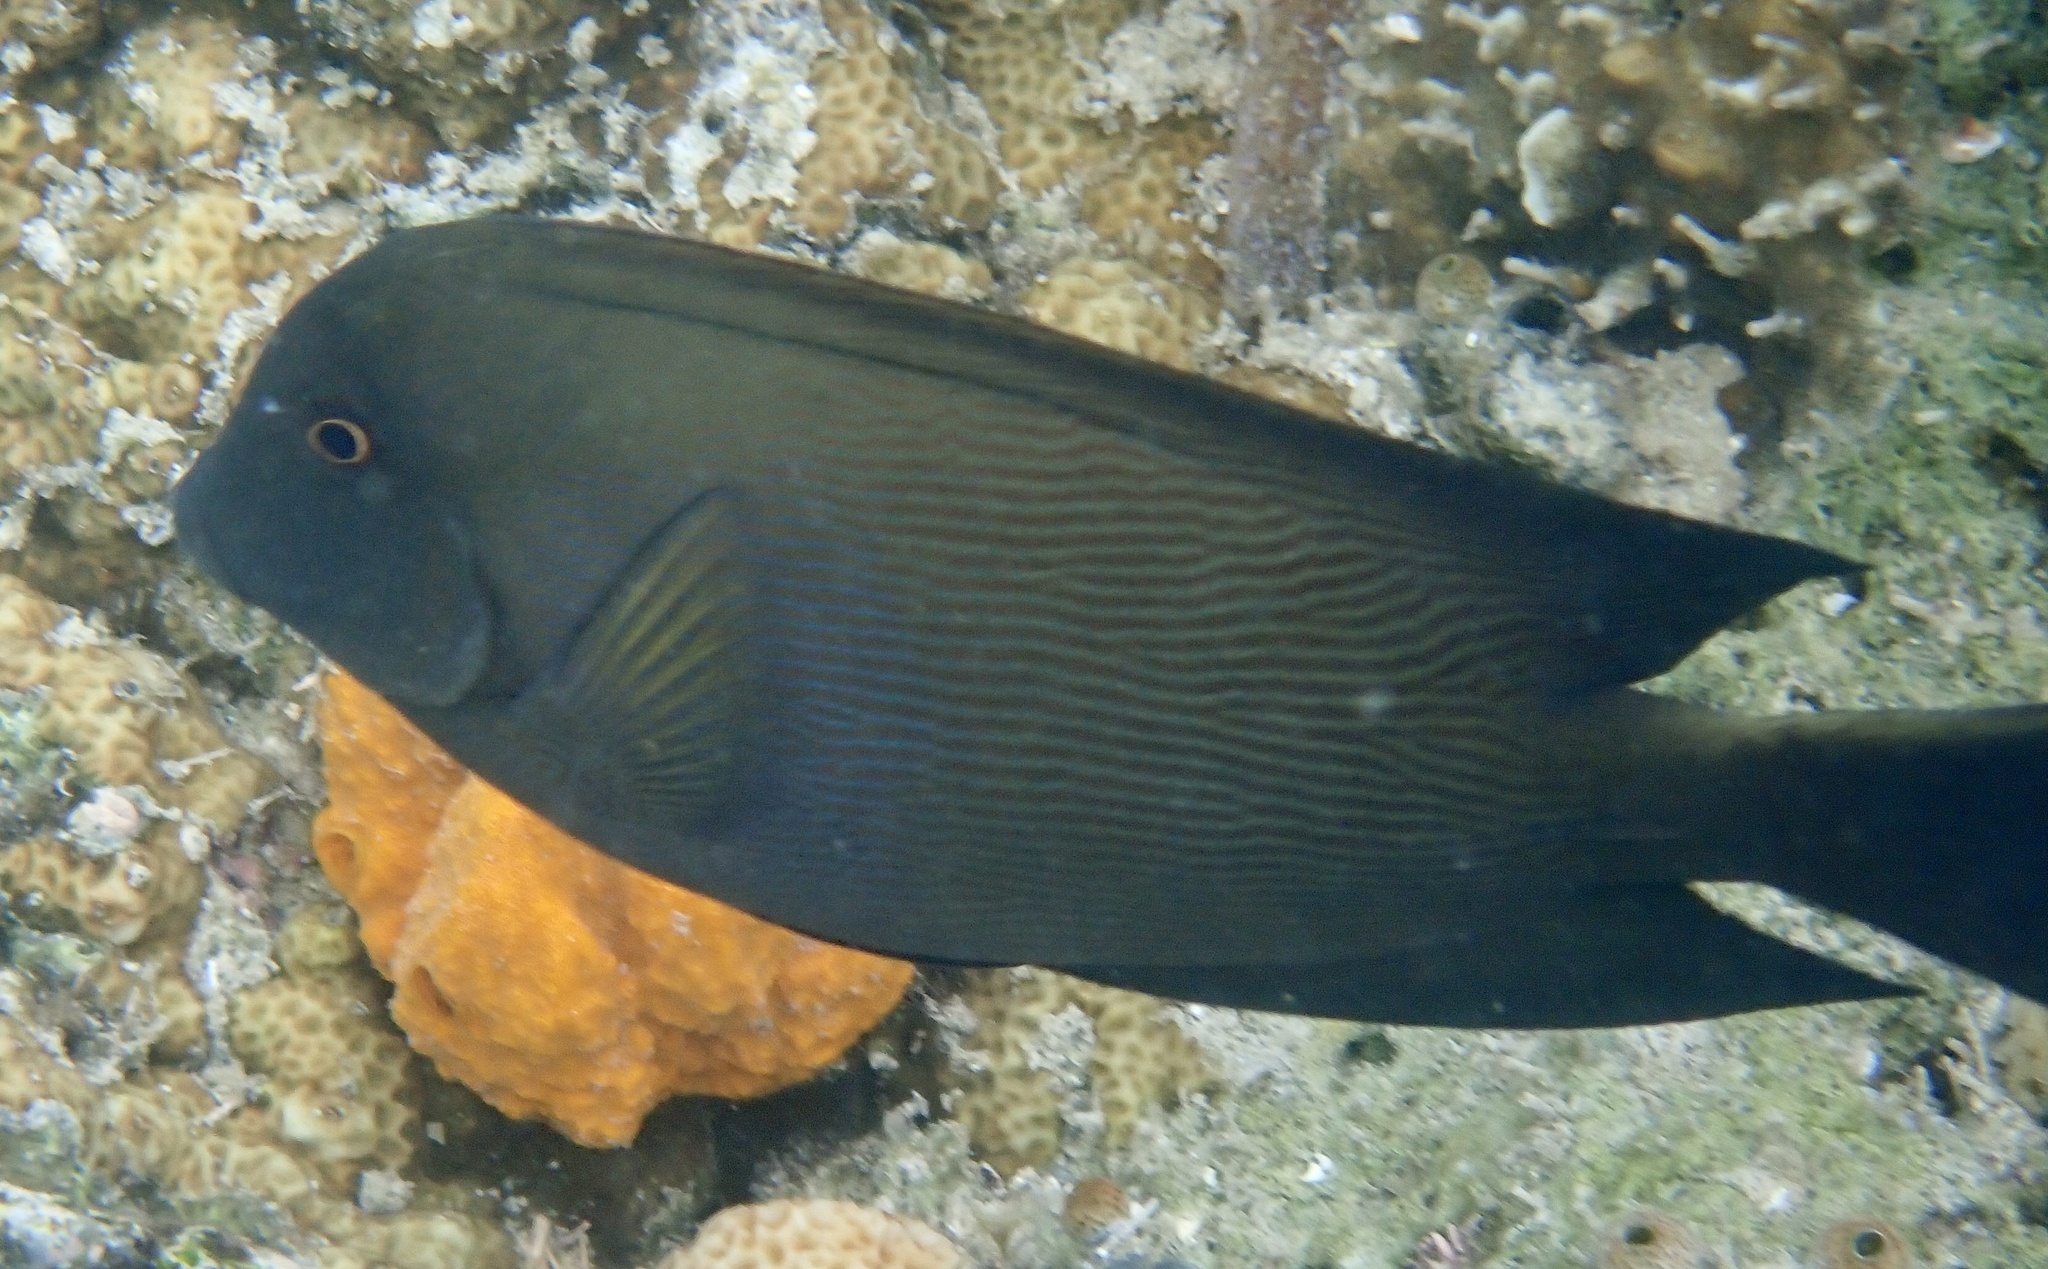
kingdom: Animalia
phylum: Chordata
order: Perciformes
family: Acanthuridae
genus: Ctenochaetus
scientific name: Ctenochaetus striatus
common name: Bristle-toothed surgeonfish
